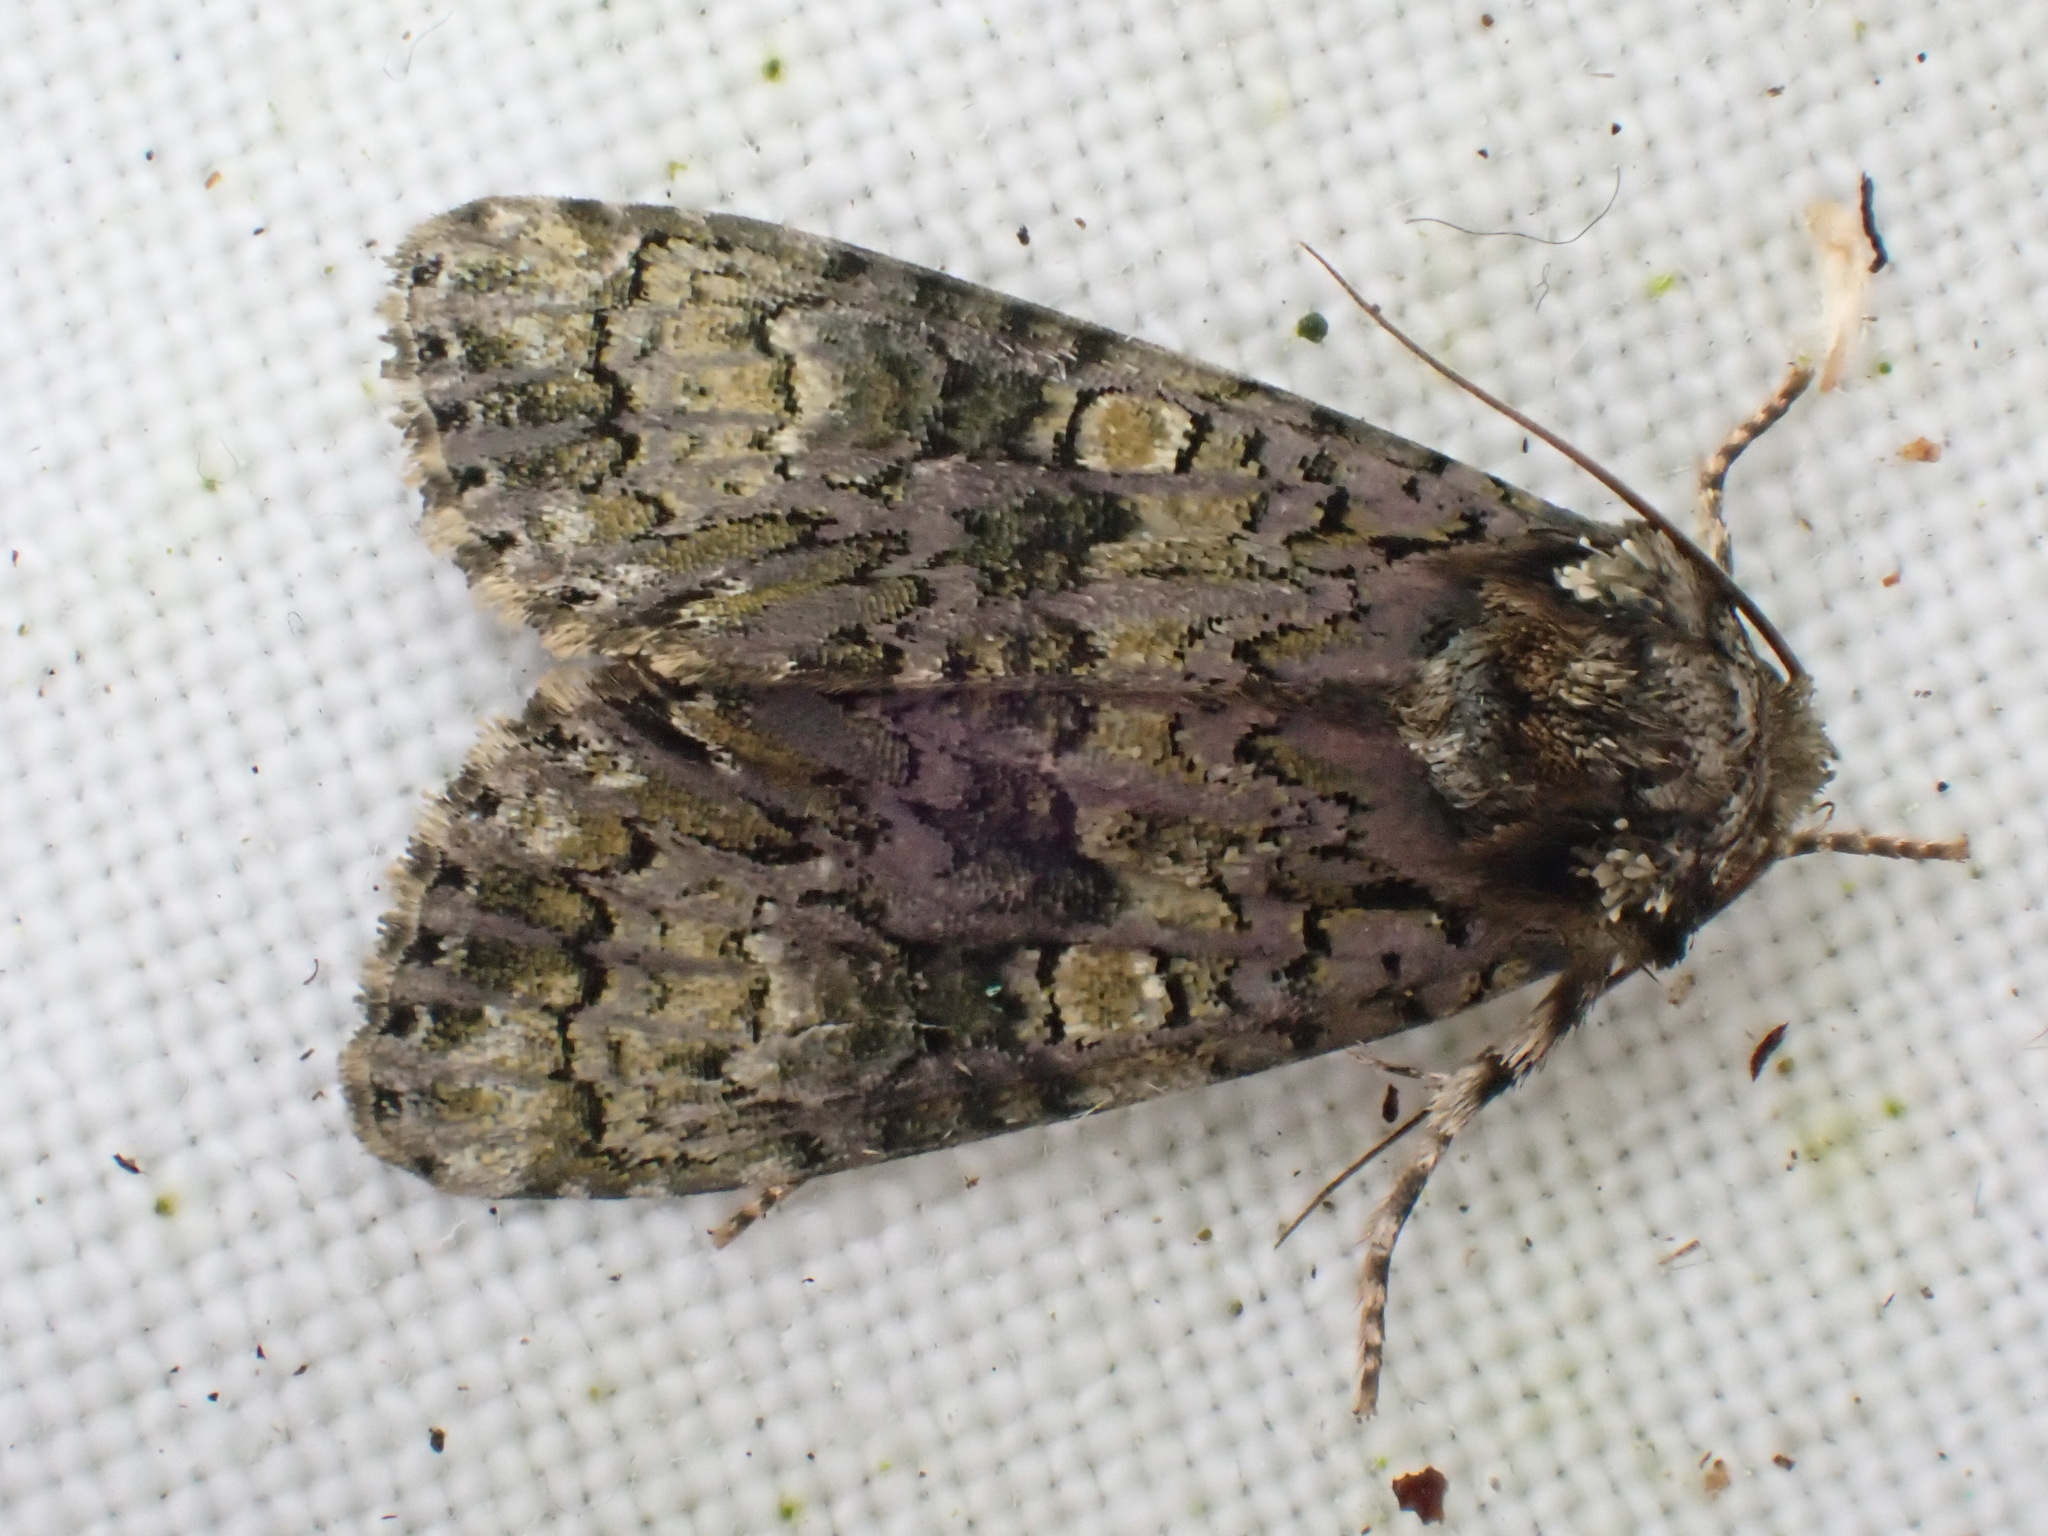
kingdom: Animalia
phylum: Arthropoda
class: Insecta
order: Lepidoptera
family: Noctuidae
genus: Craniophora
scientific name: Craniophora ligustri
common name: Coronet
